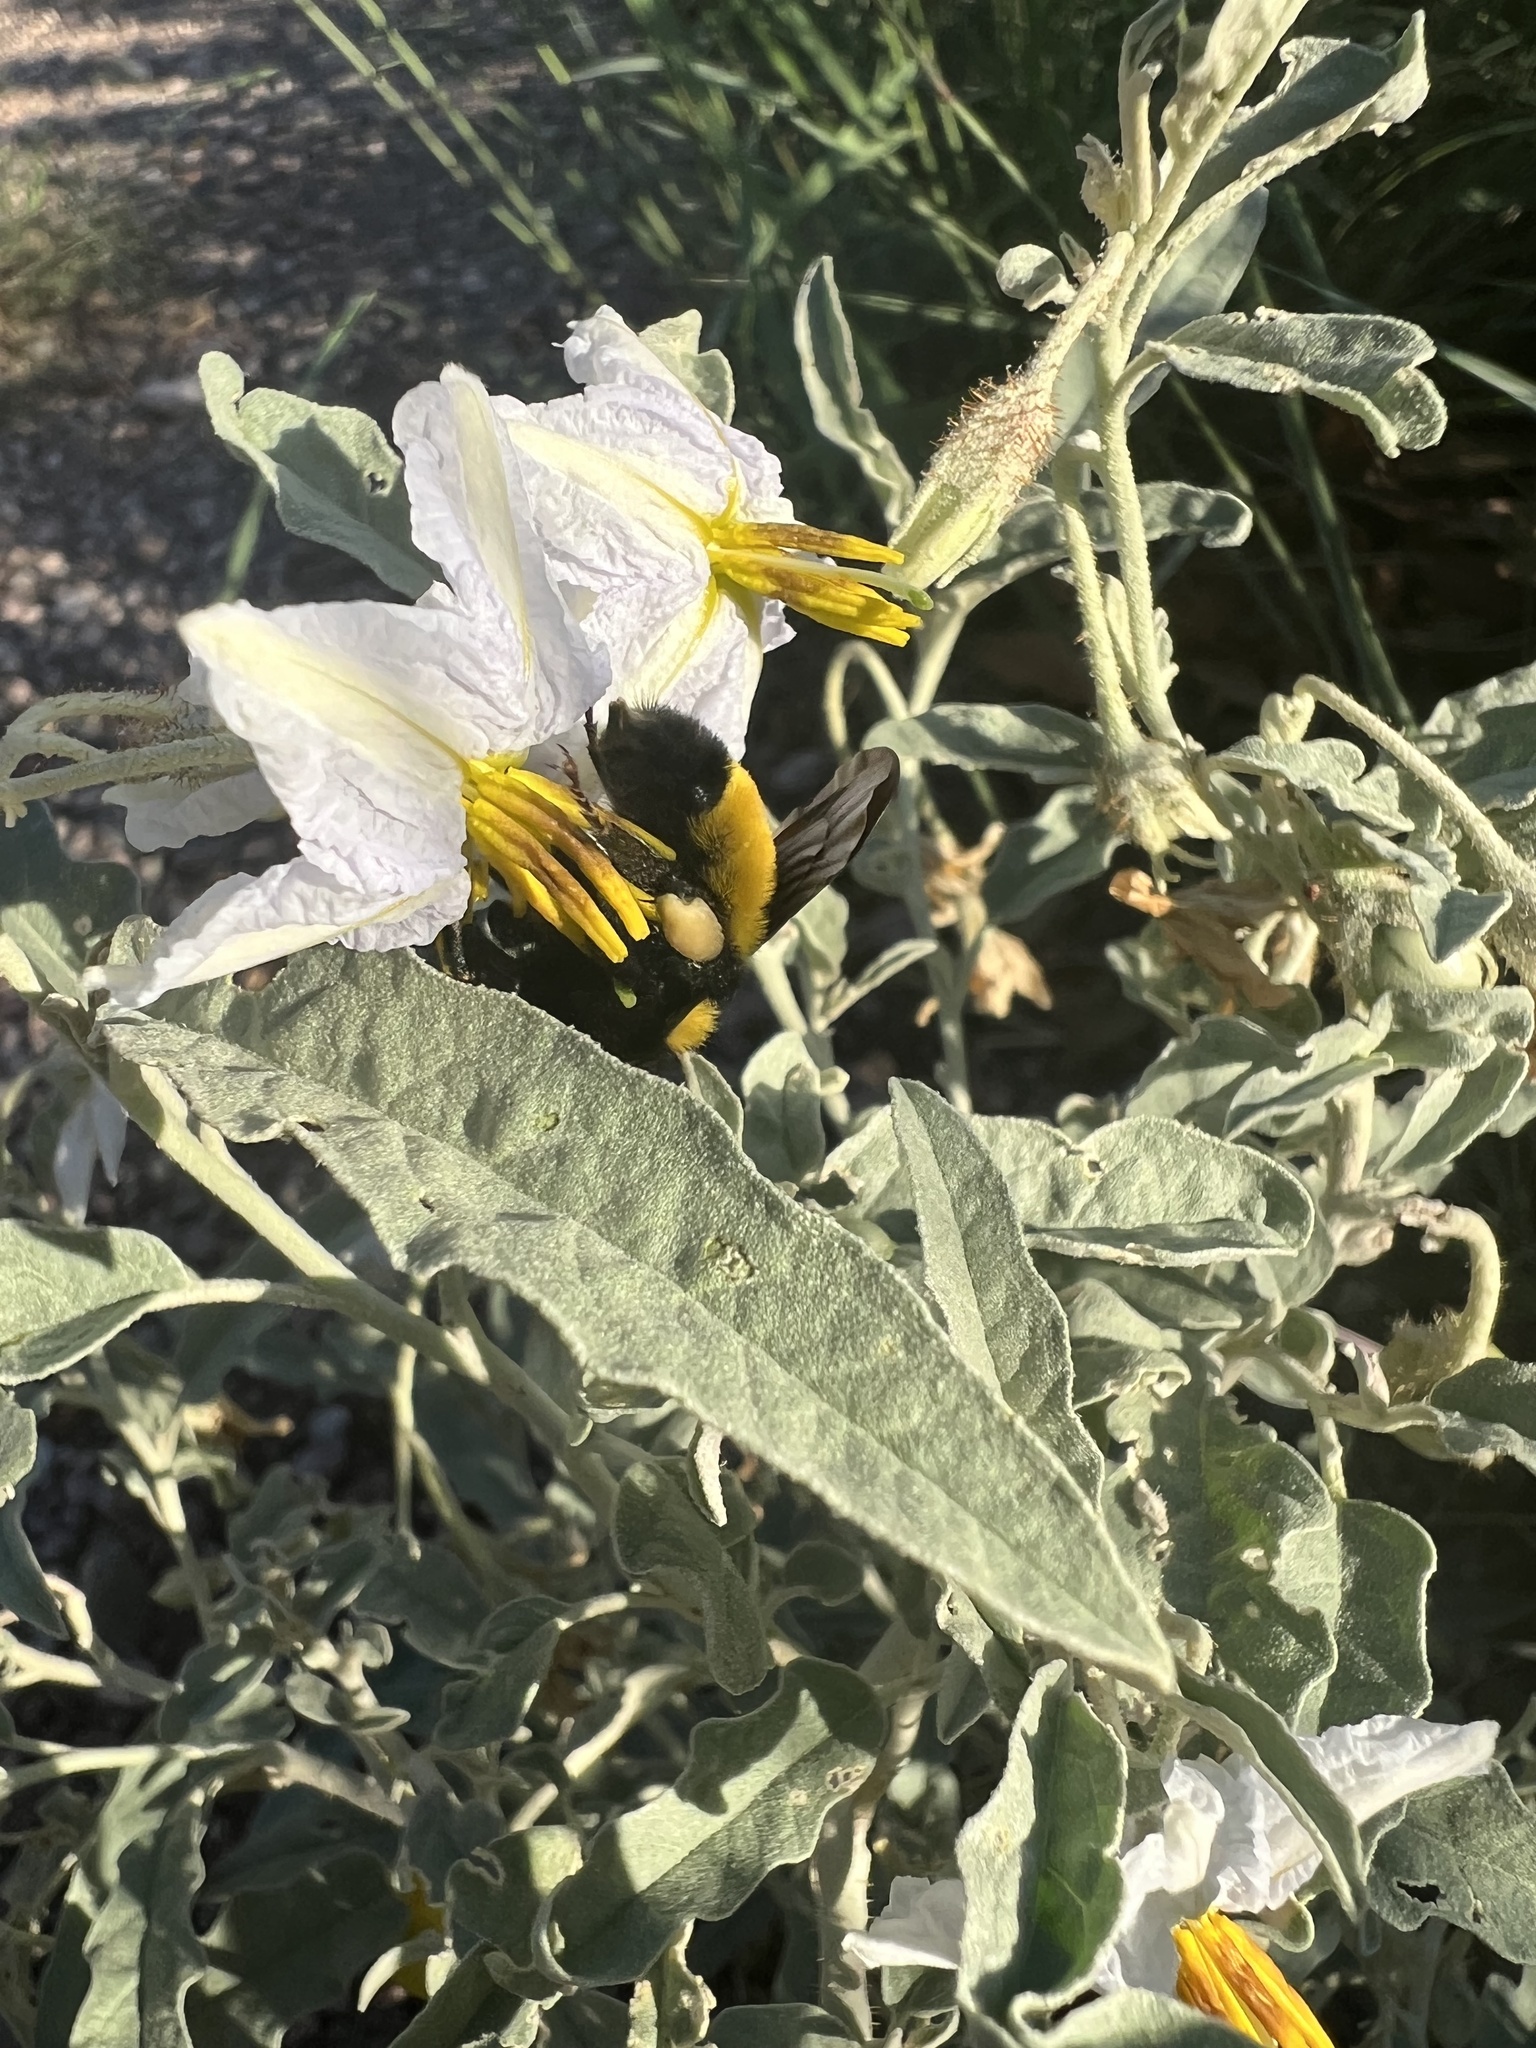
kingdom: Animalia
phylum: Arthropoda
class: Insecta
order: Hymenoptera
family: Apidae
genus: Bombus
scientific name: Bombus sonorus
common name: Sonoran bumble bee
